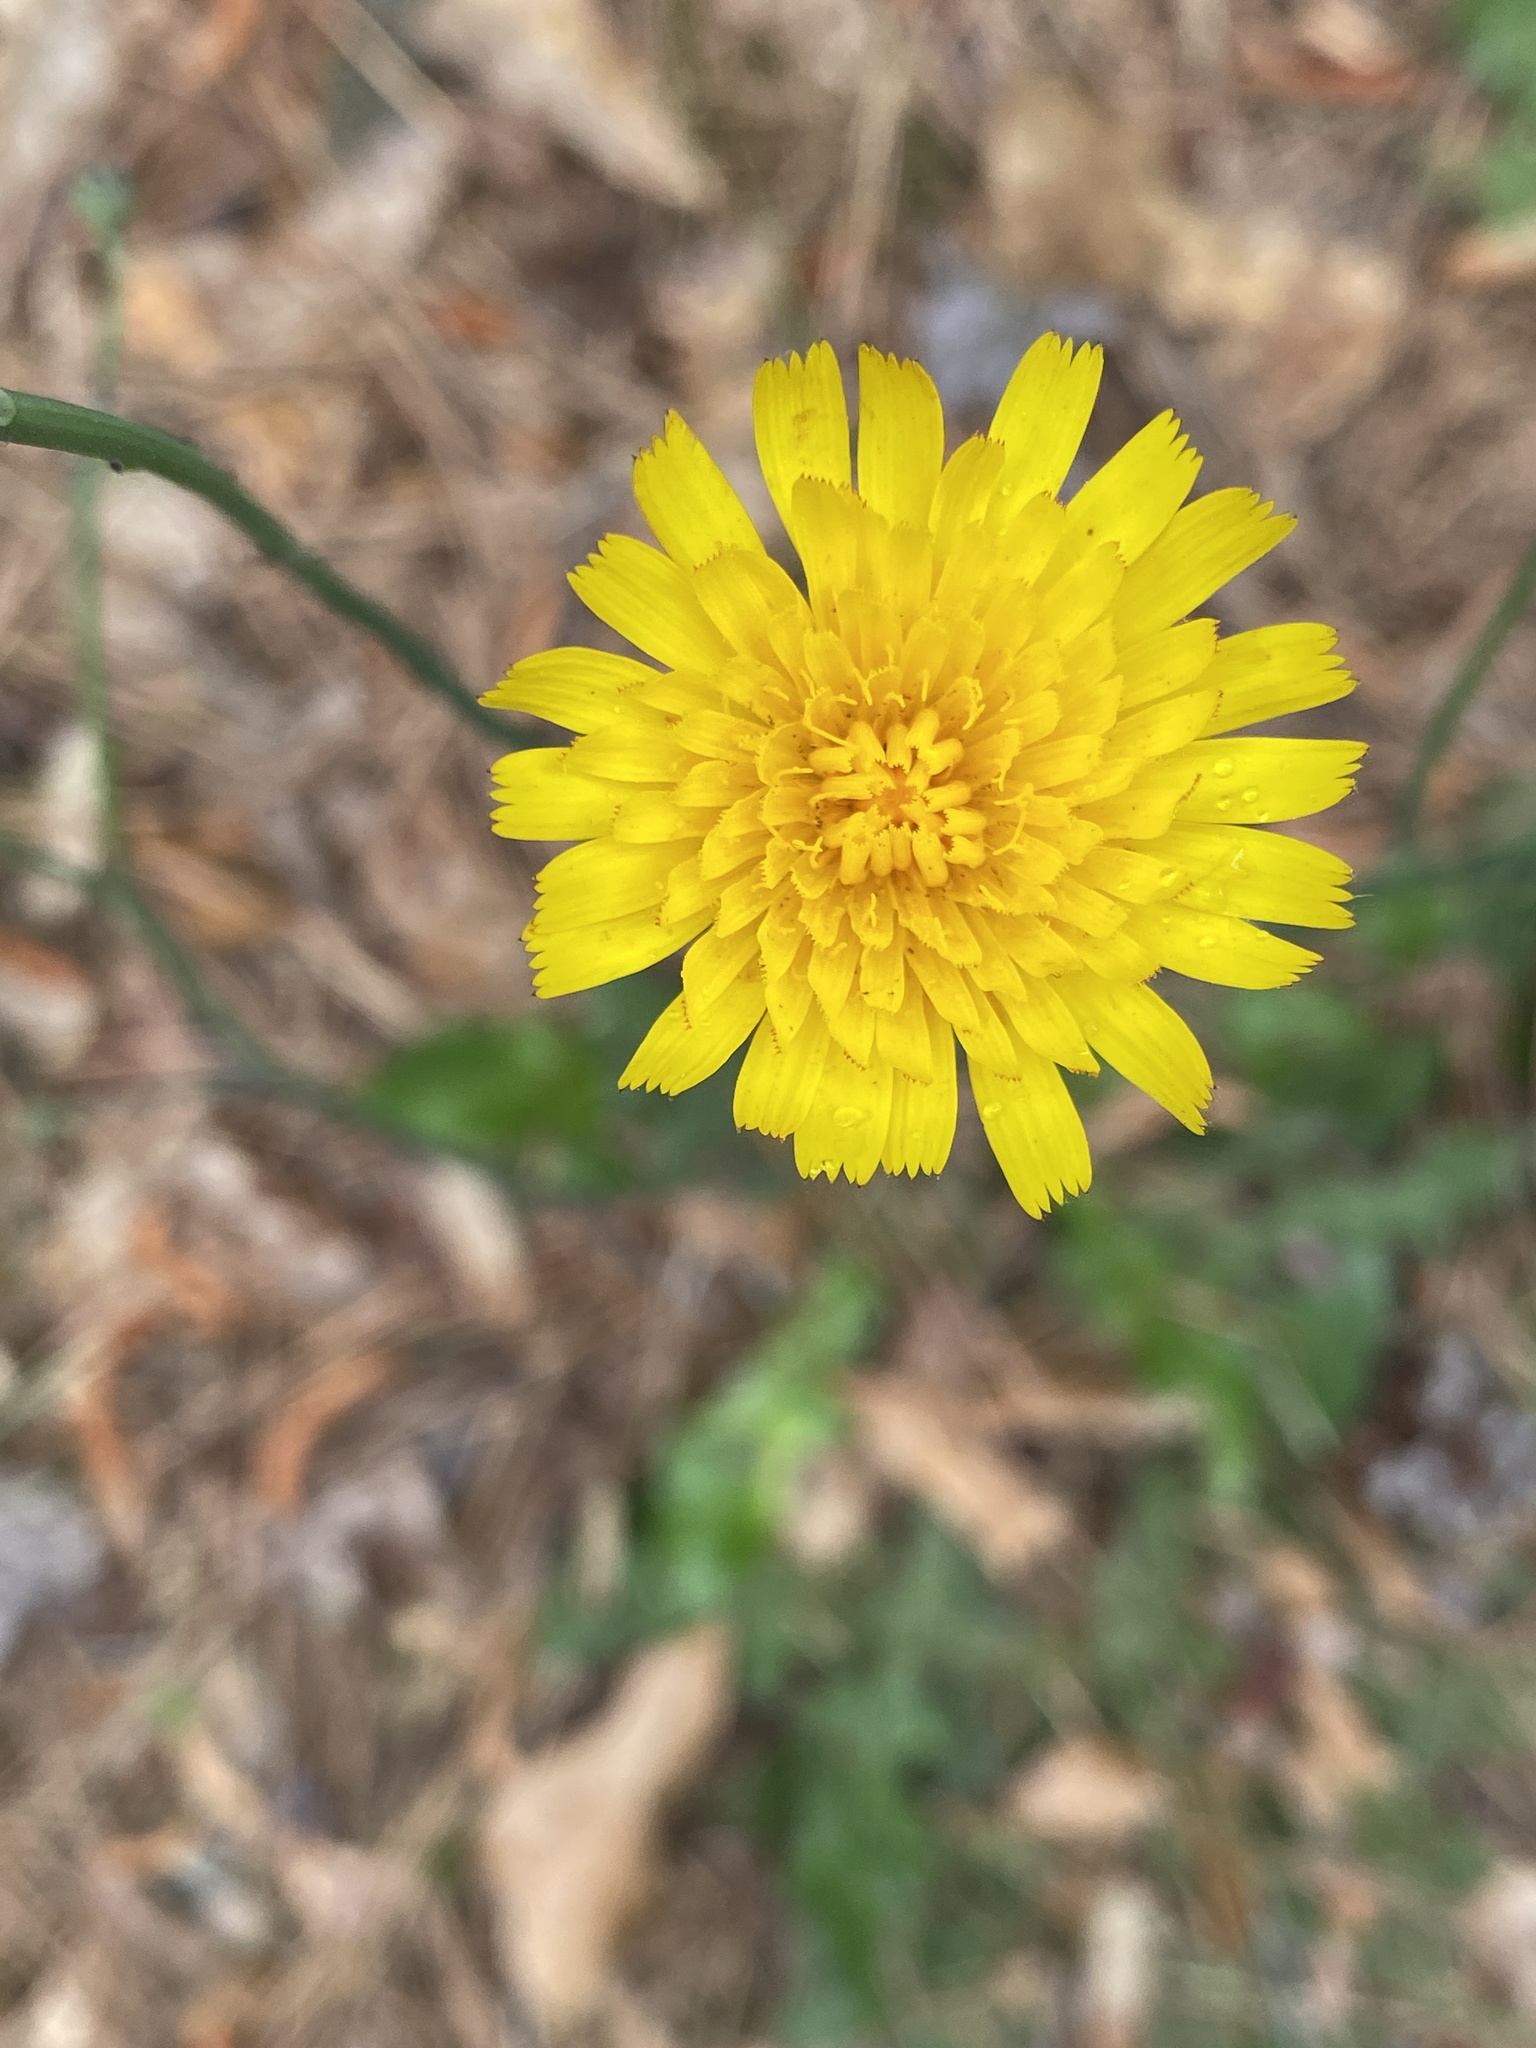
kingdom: Plantae
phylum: Tracheophyta
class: Magnoliopsida
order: Asterales
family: Asteraceae
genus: Hypochaeris
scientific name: Hypochaeris radicata
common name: Flatweed
